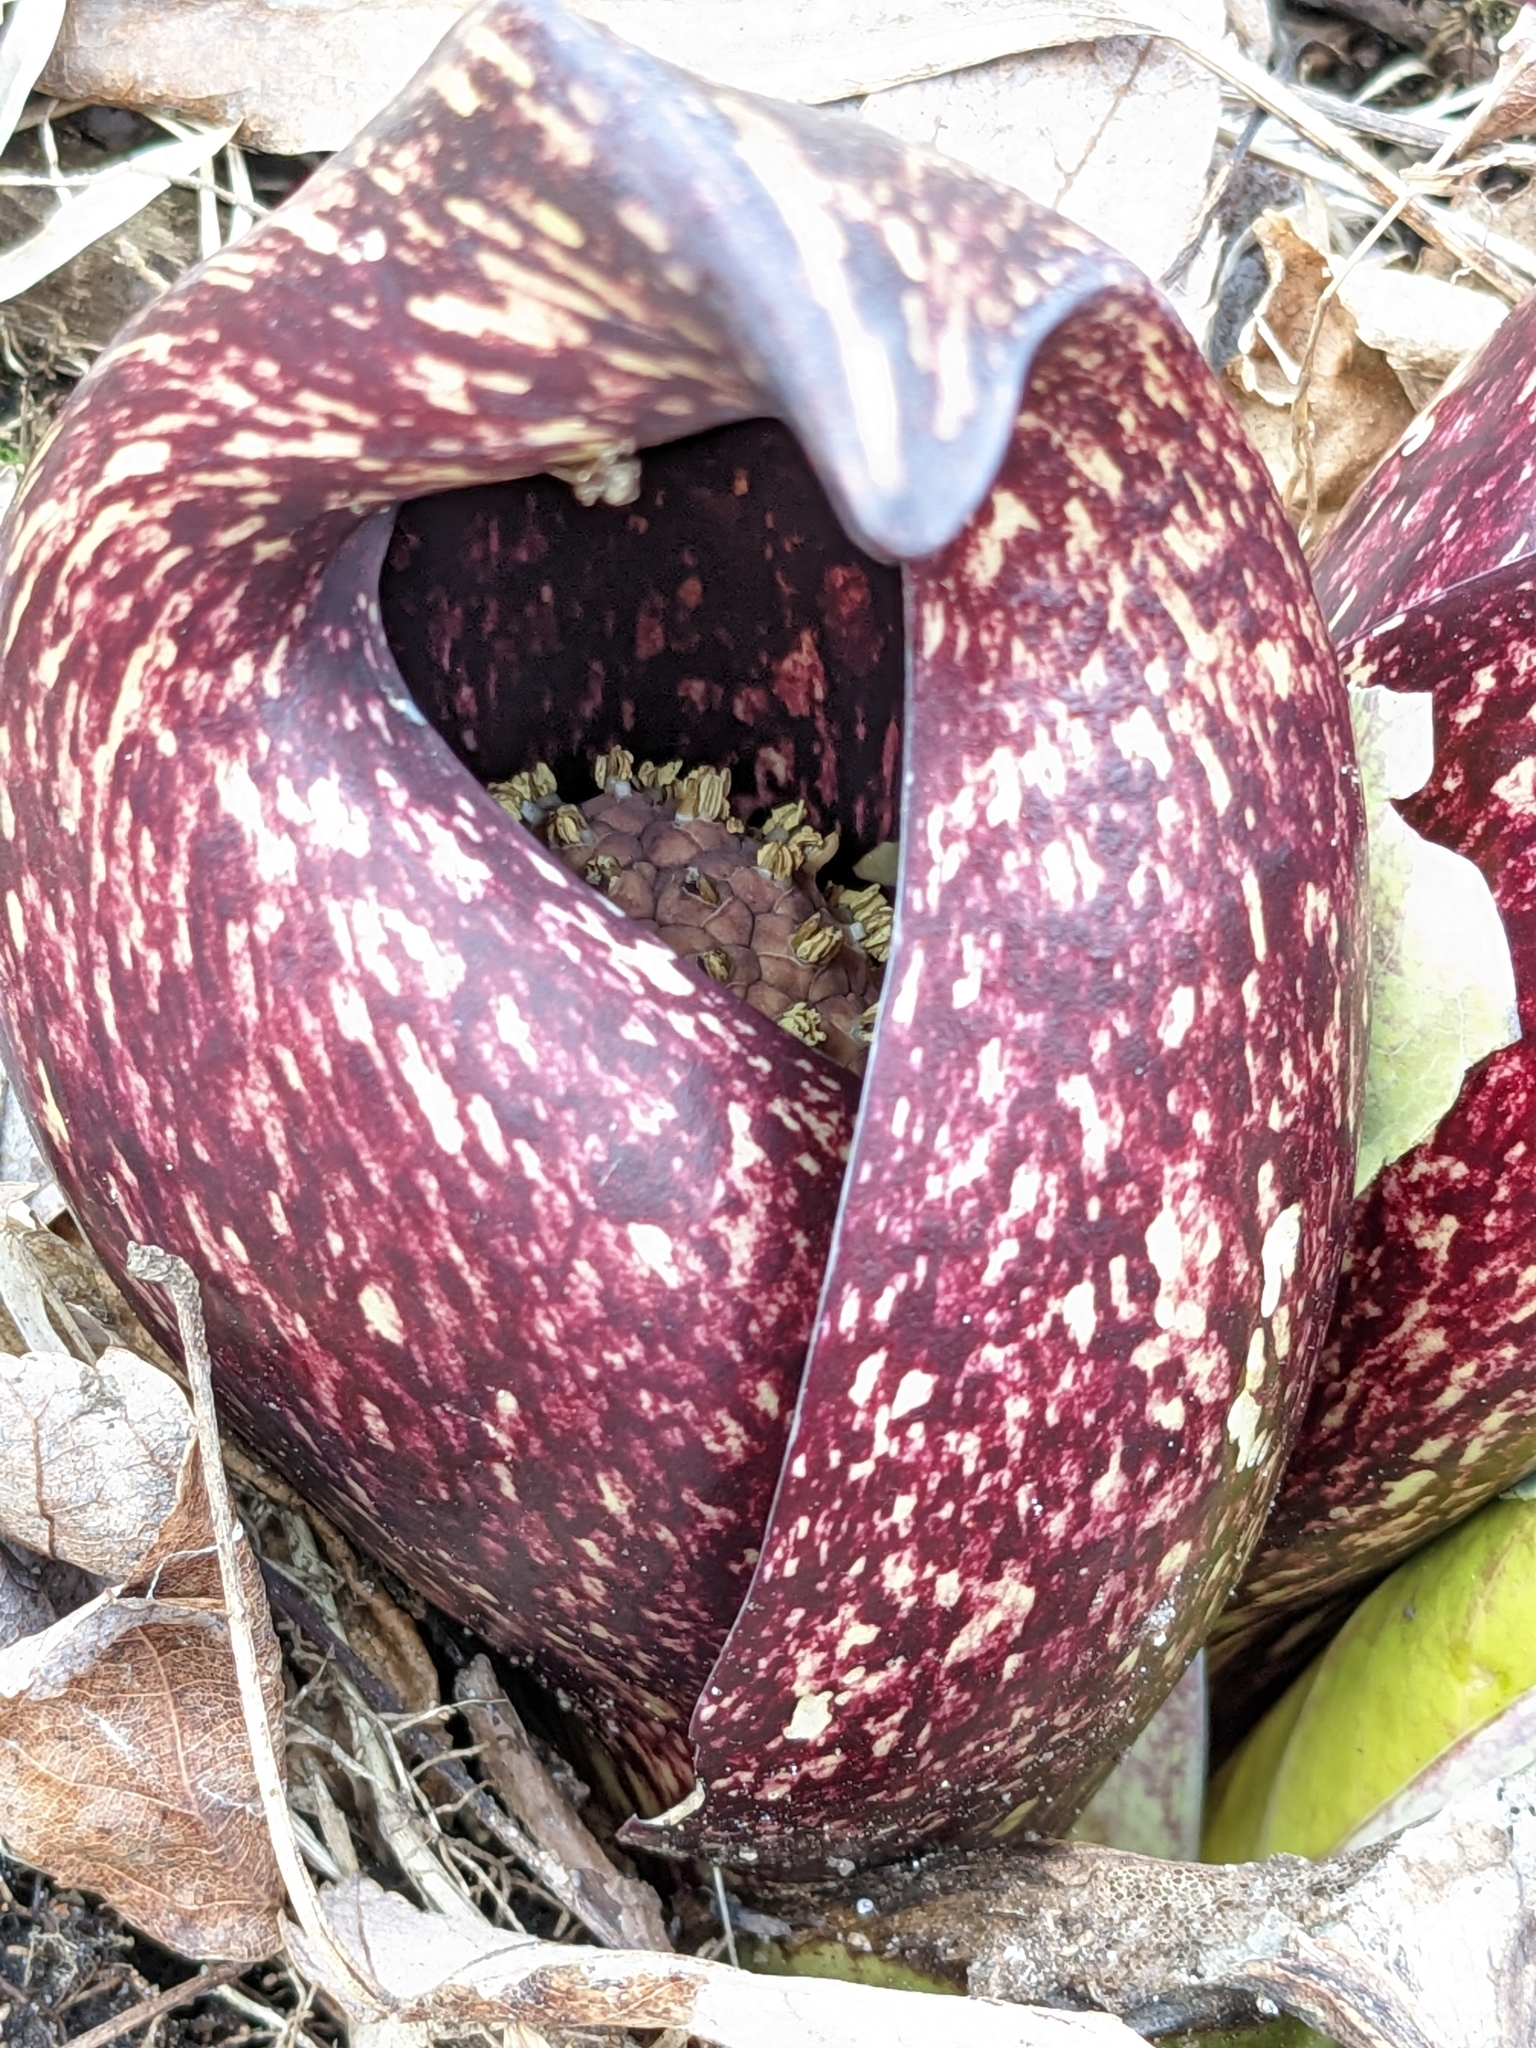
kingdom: Plantae
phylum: Tracheophyta
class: Liliopsida
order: Alismatales
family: Araceae
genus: Symplocarpus
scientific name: Symplocarpus foetidus
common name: Eastern skunk cabbage
